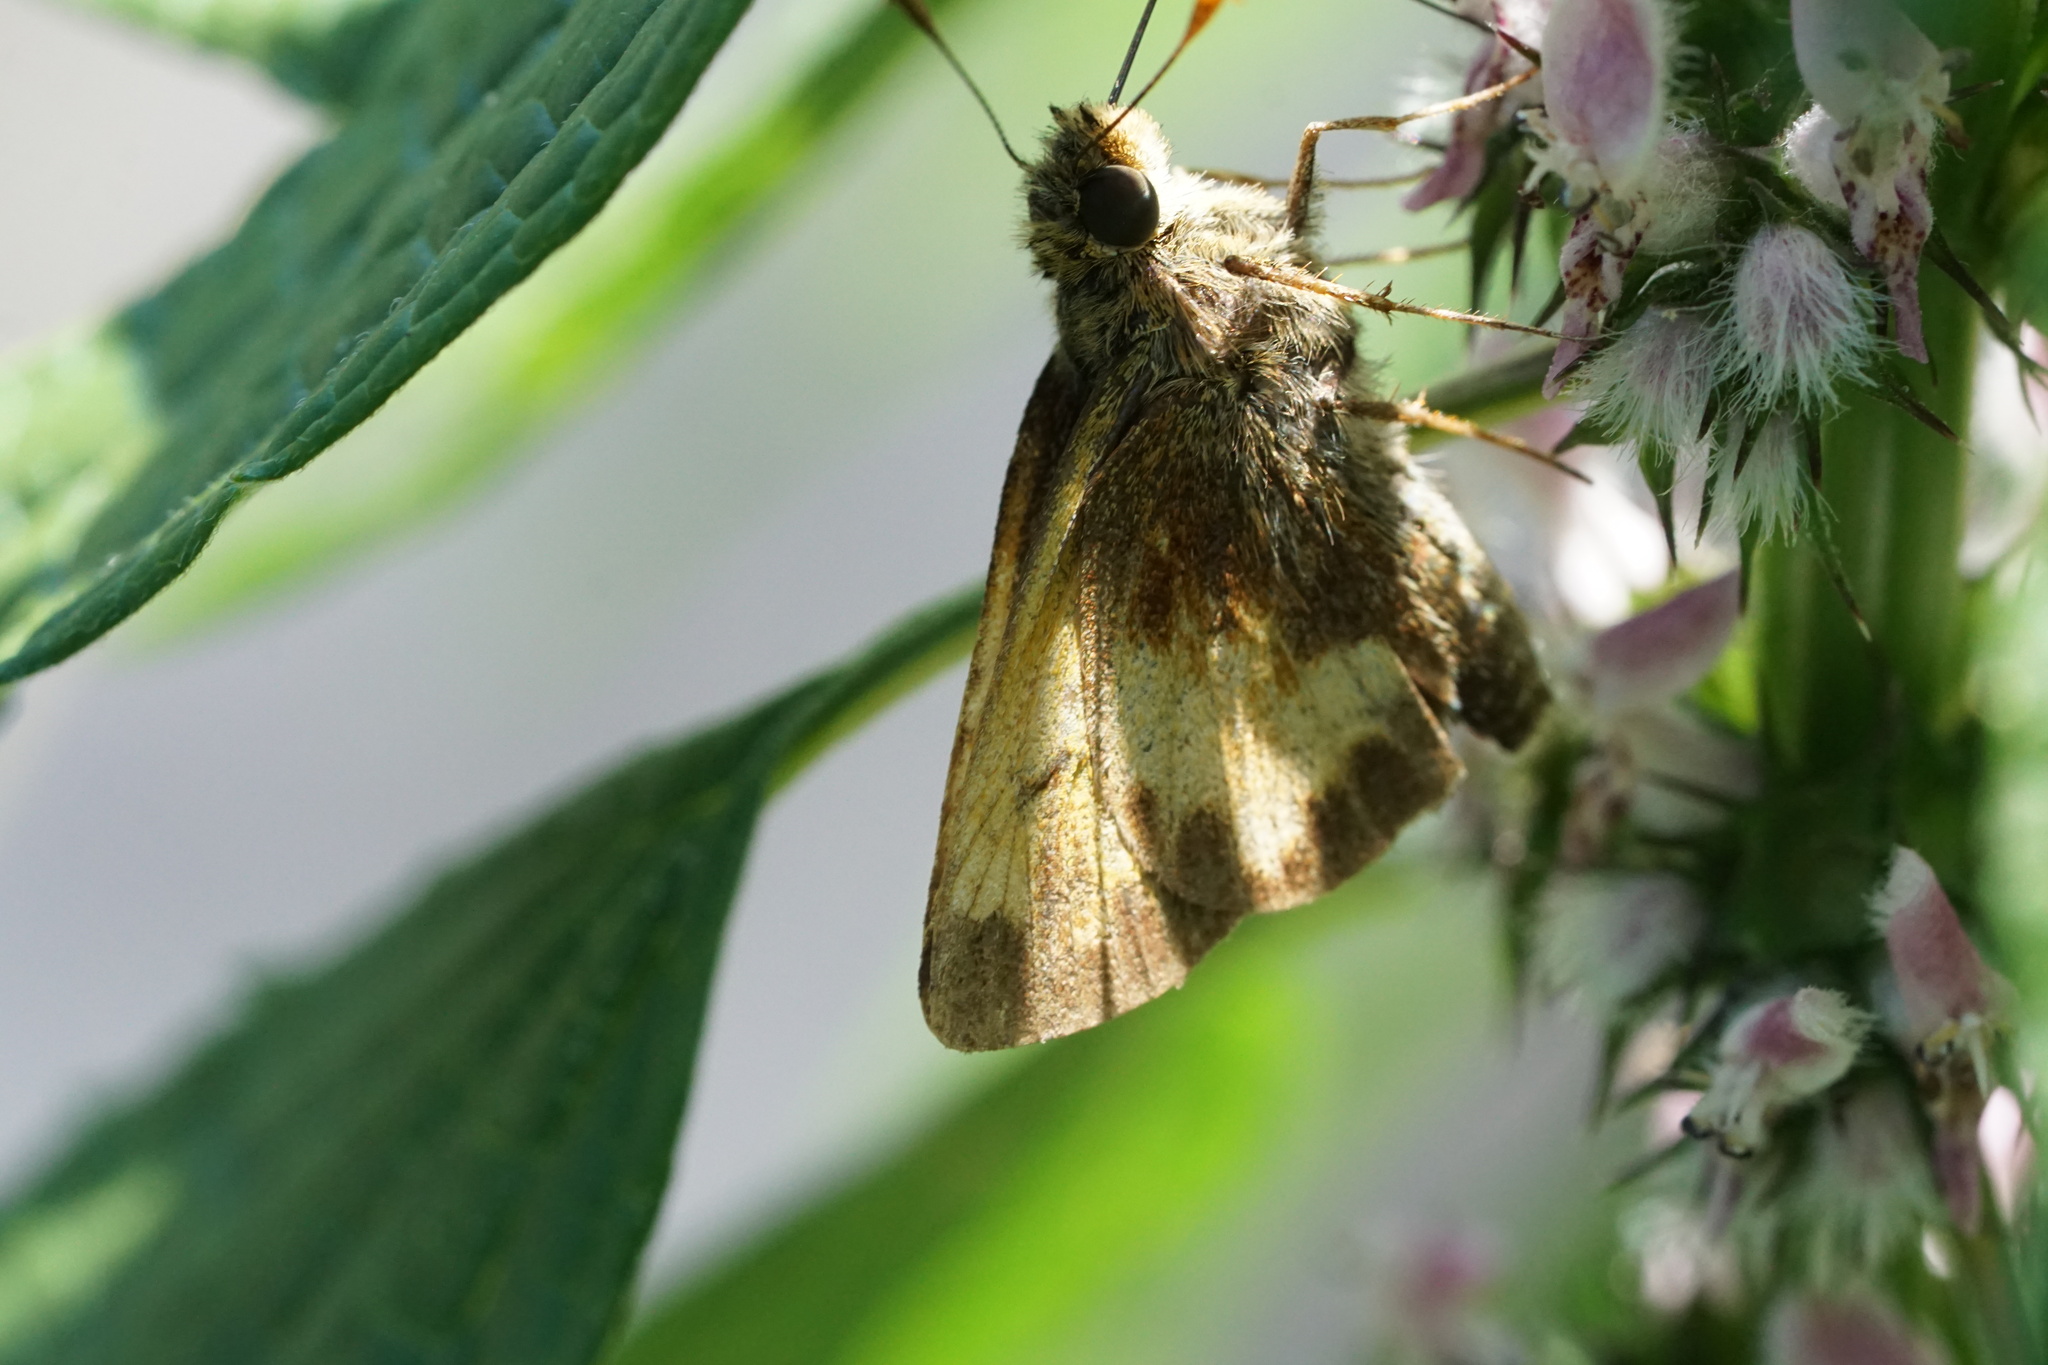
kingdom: Animalia
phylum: Arthropoda
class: Insecta
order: Lepidoptera
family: Hesperiidae
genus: Lon
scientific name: Lon hobomok
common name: Hobomok skipper
